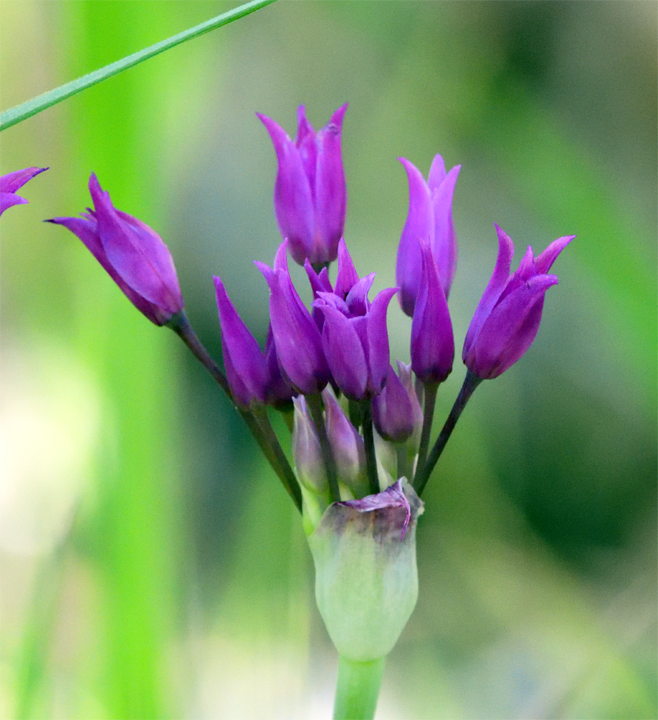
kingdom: Plantae
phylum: Tracheophyta
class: Liliopsida
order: Asparagales
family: Amaryllidaceae
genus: Allium
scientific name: Allium peninsulare
